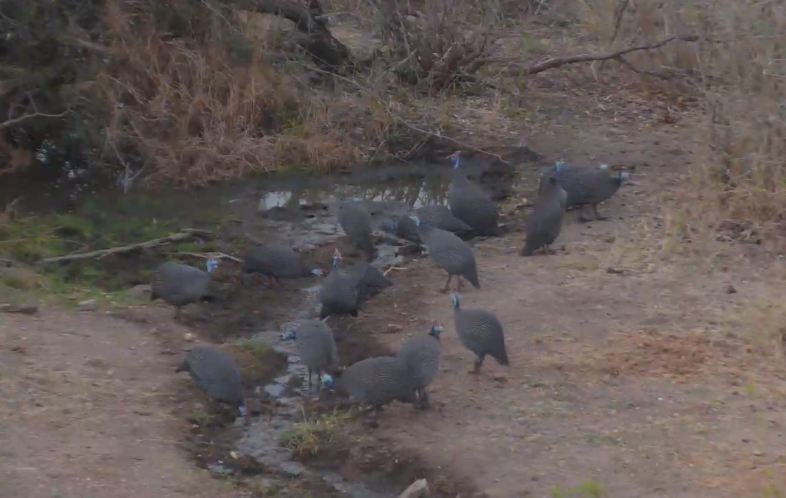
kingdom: Animalia
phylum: Chordata
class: Aves
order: Galliformes
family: Numididae
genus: Numida
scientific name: Numida meleagris
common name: Helmeted guineafowl
